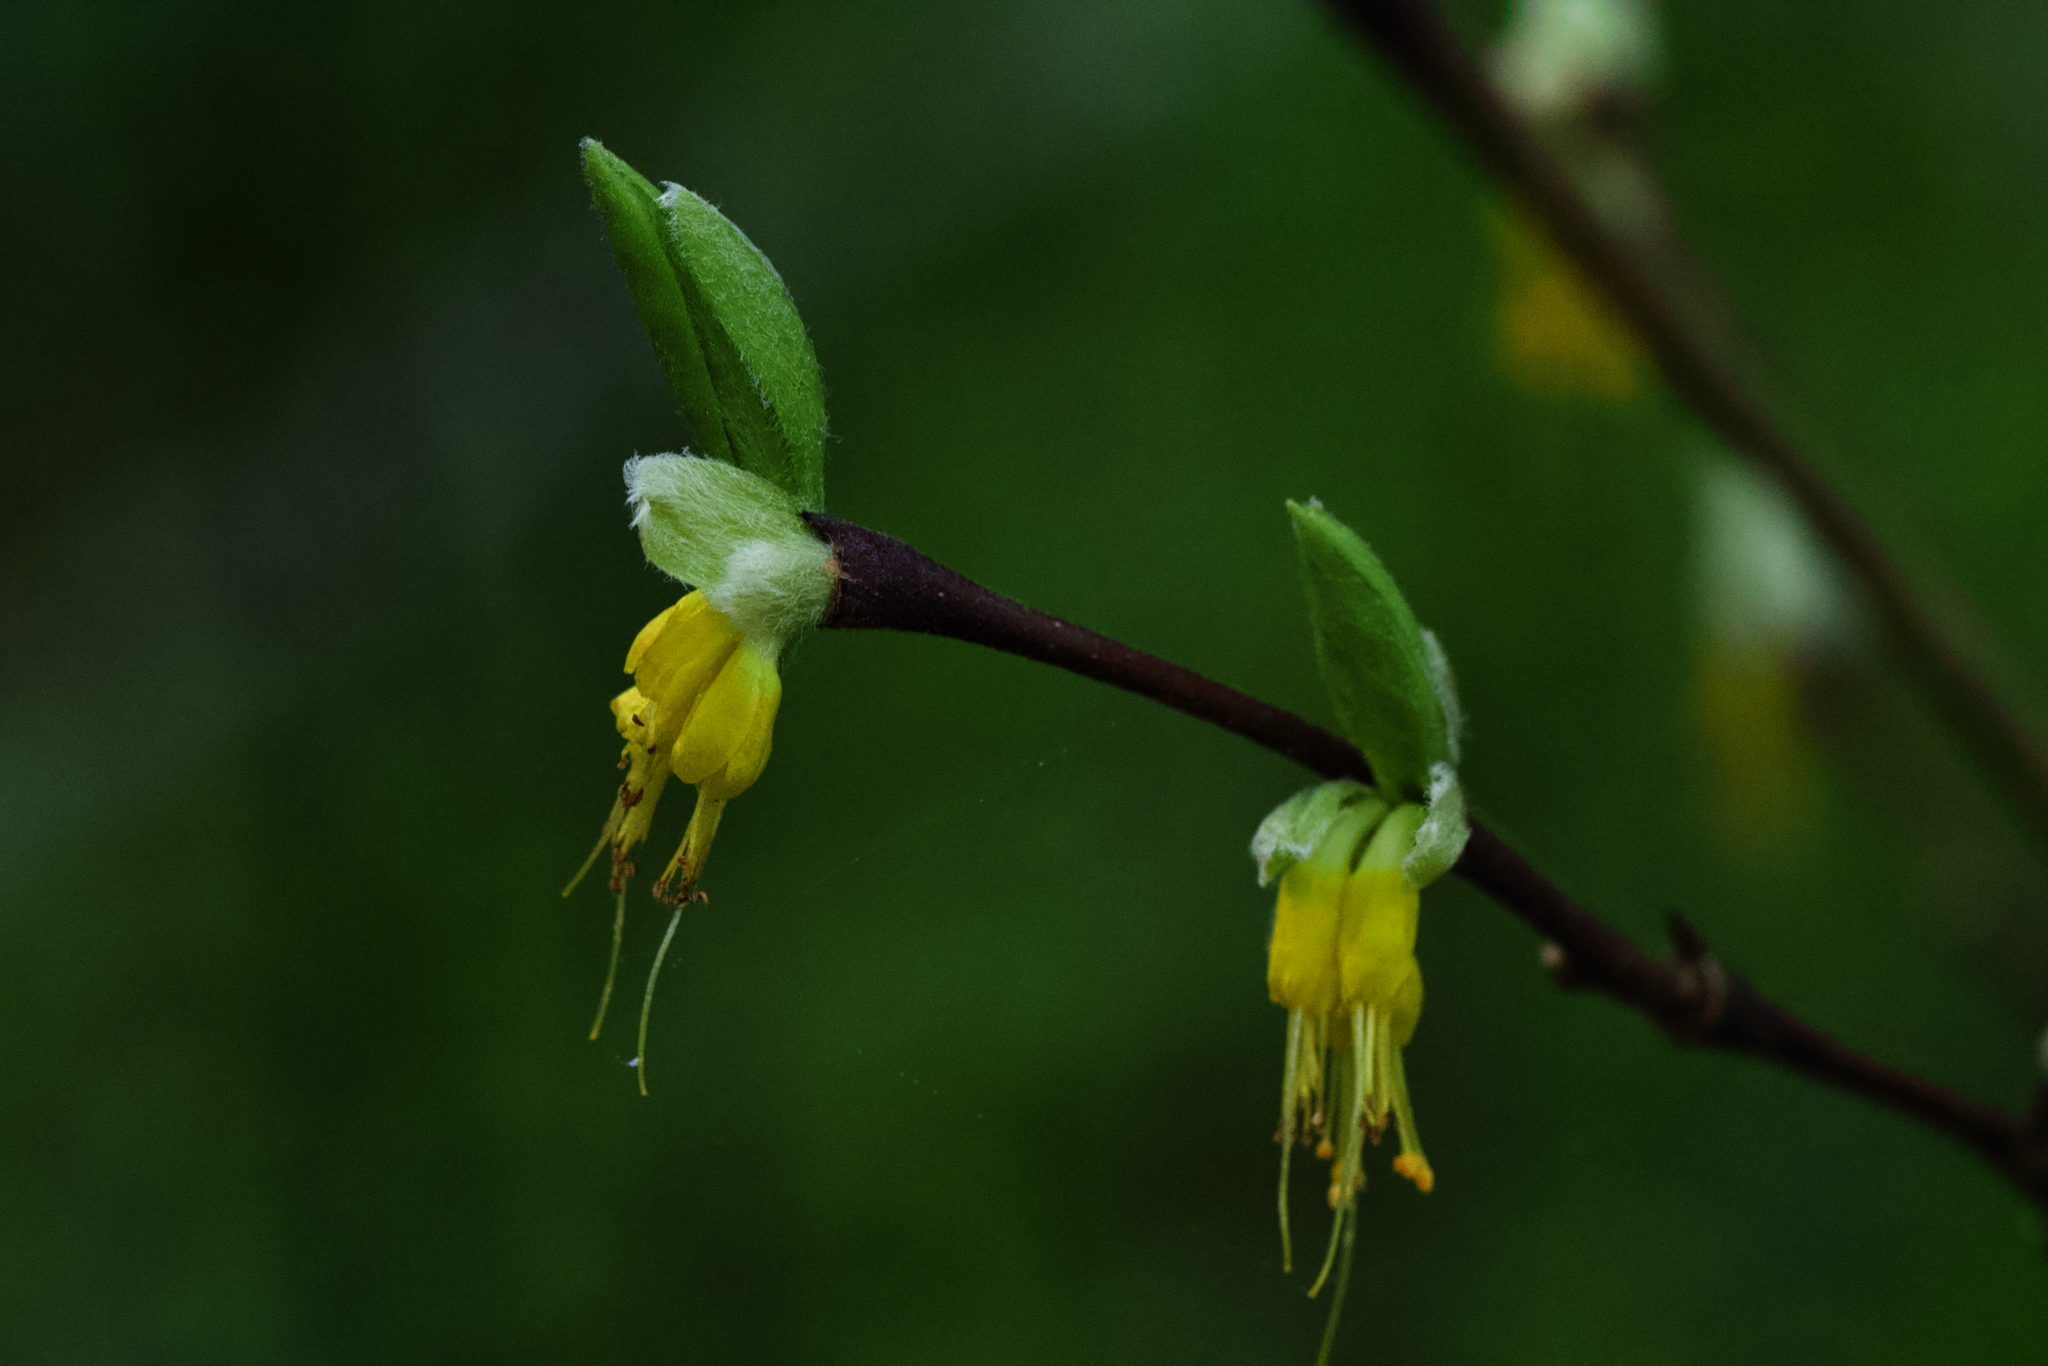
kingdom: Plantae
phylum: Tracheophyta
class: Magnoliopsida
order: Malvales
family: Thymelaeaceae
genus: Dirca
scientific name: Dirca occidentalis
